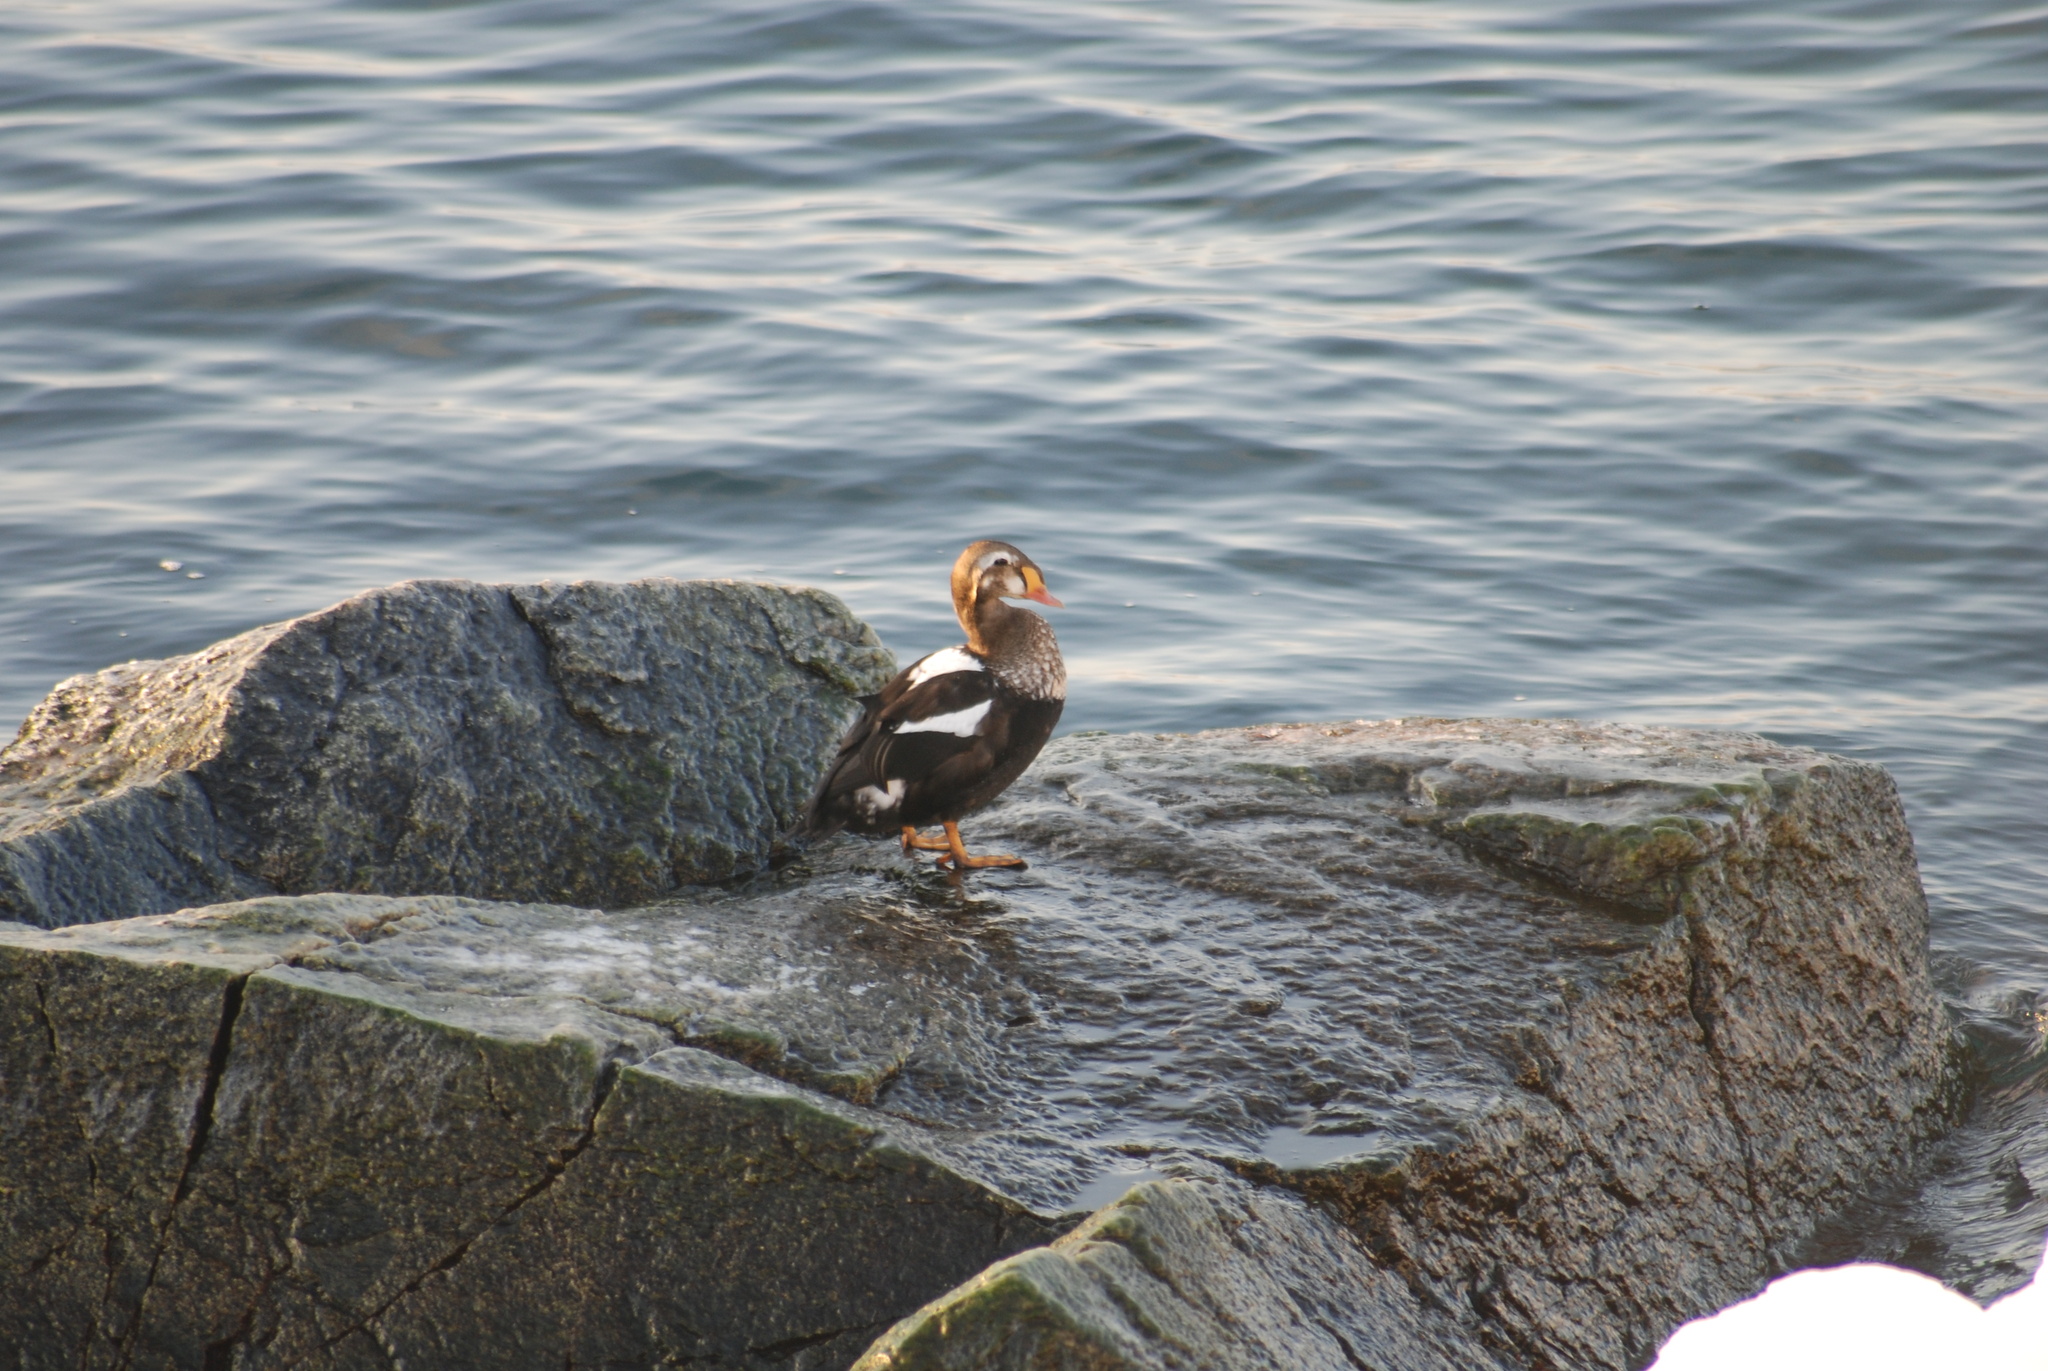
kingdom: Animalia
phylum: Chordata
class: Aves
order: Anseriformes
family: Anatidae
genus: Somateria
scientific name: Somateria spectabilis
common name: King eider
